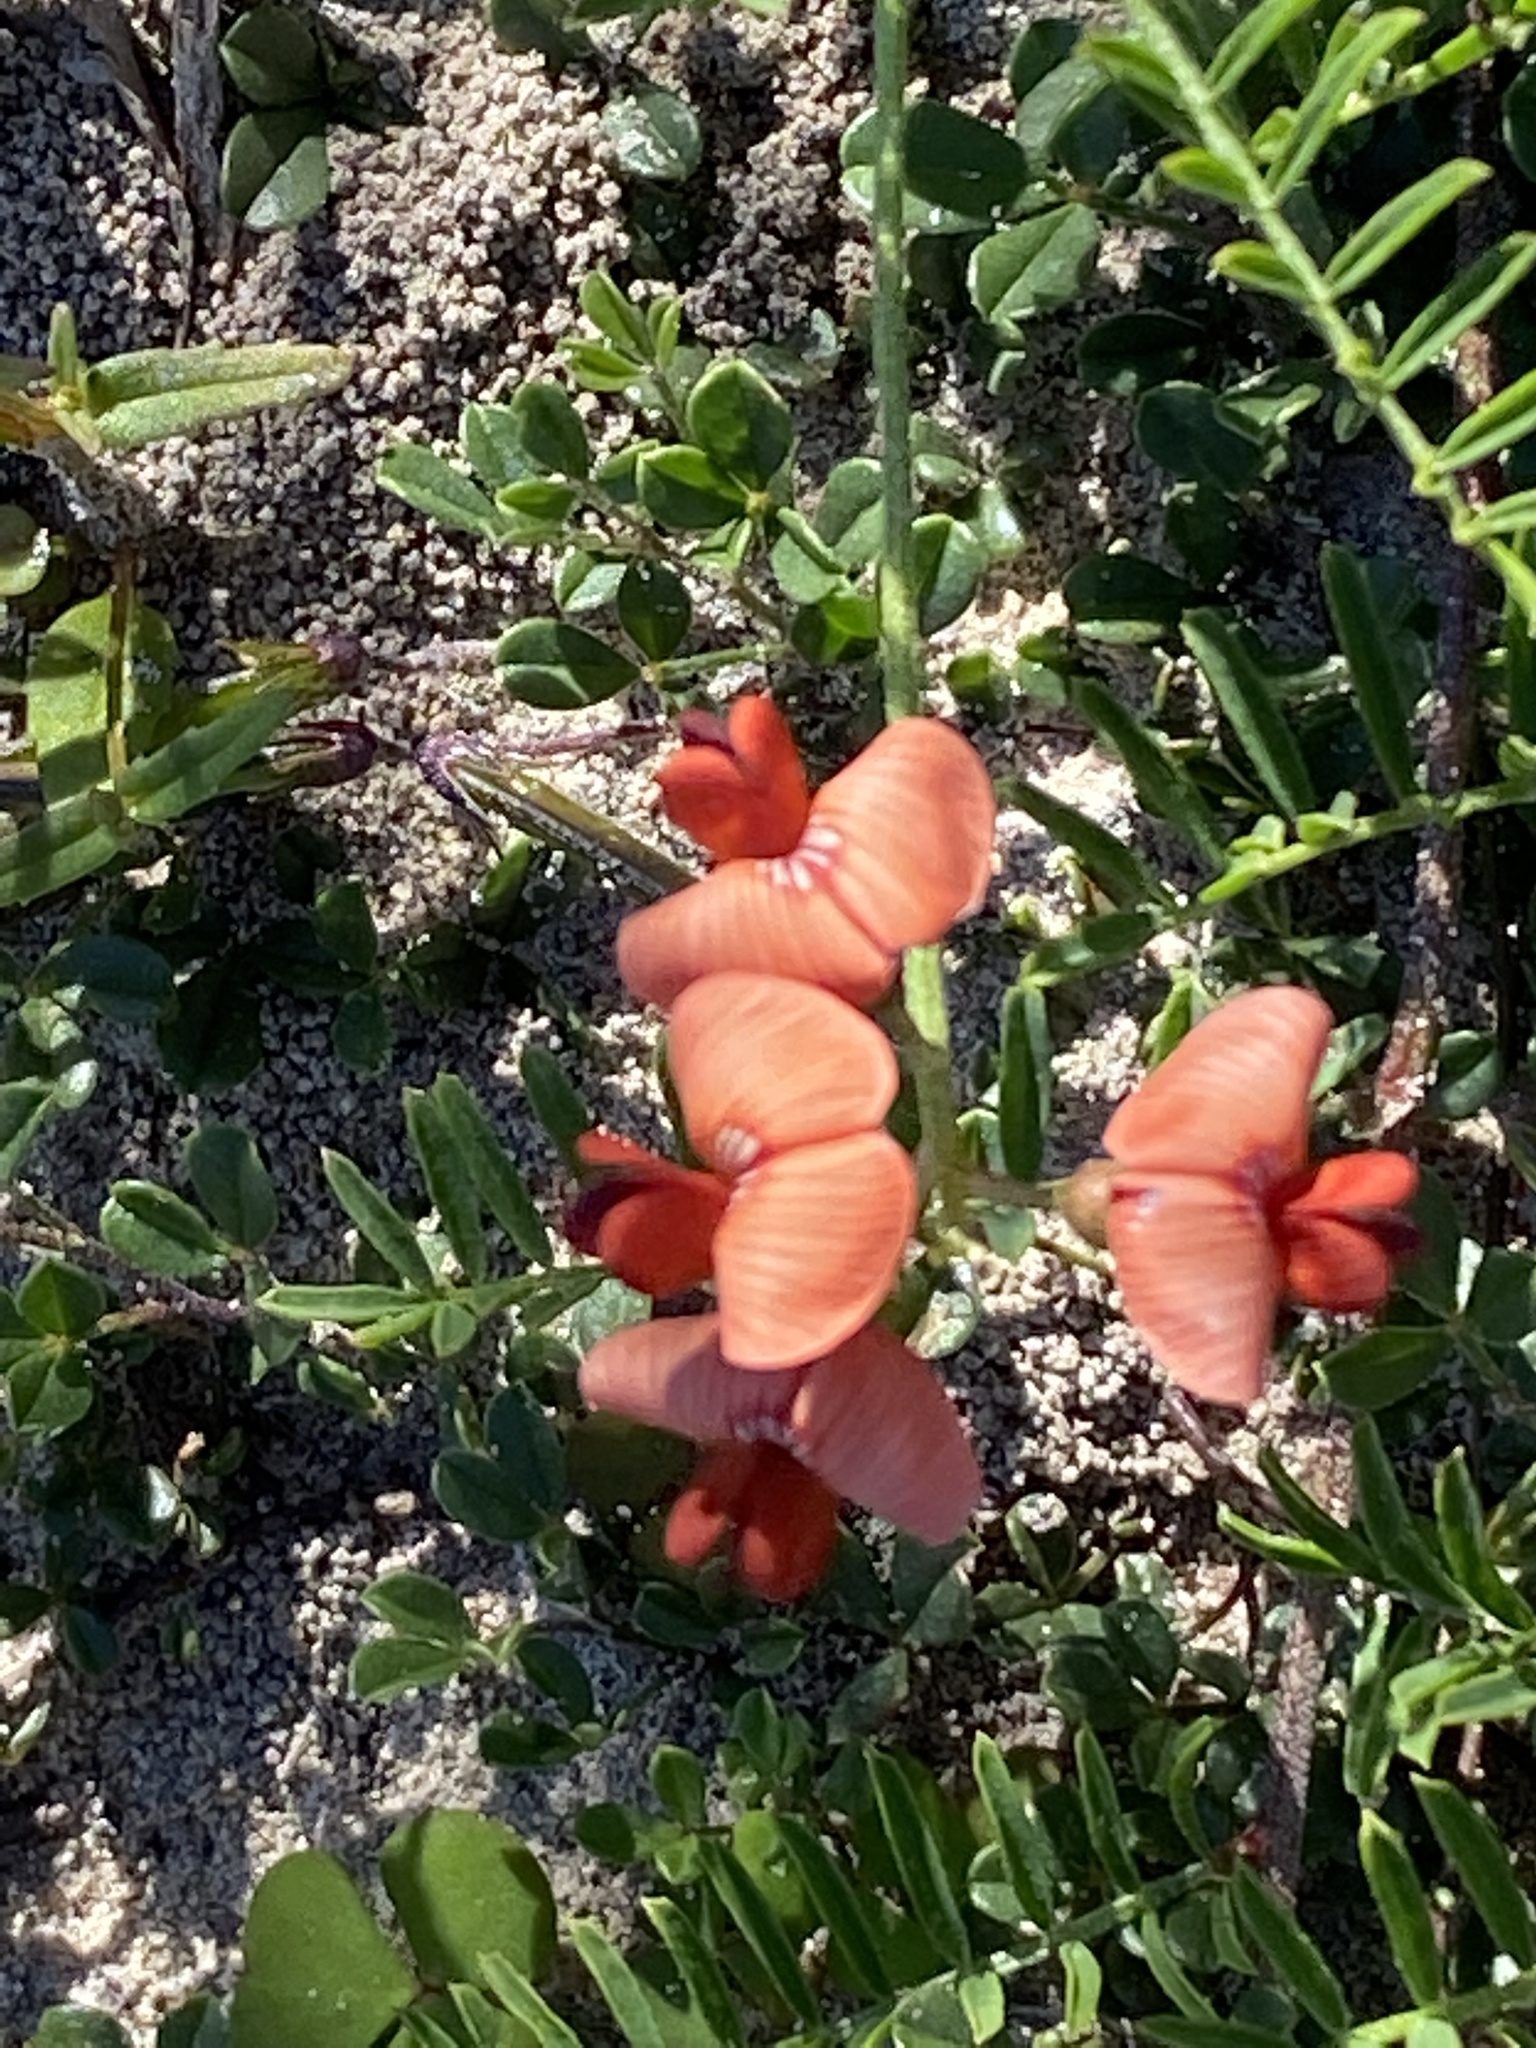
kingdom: Plantae
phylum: Tracheophyta
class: Magnoliopsida
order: Fabales
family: Fabaceae
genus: Lessertia
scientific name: Lessertia miniata
